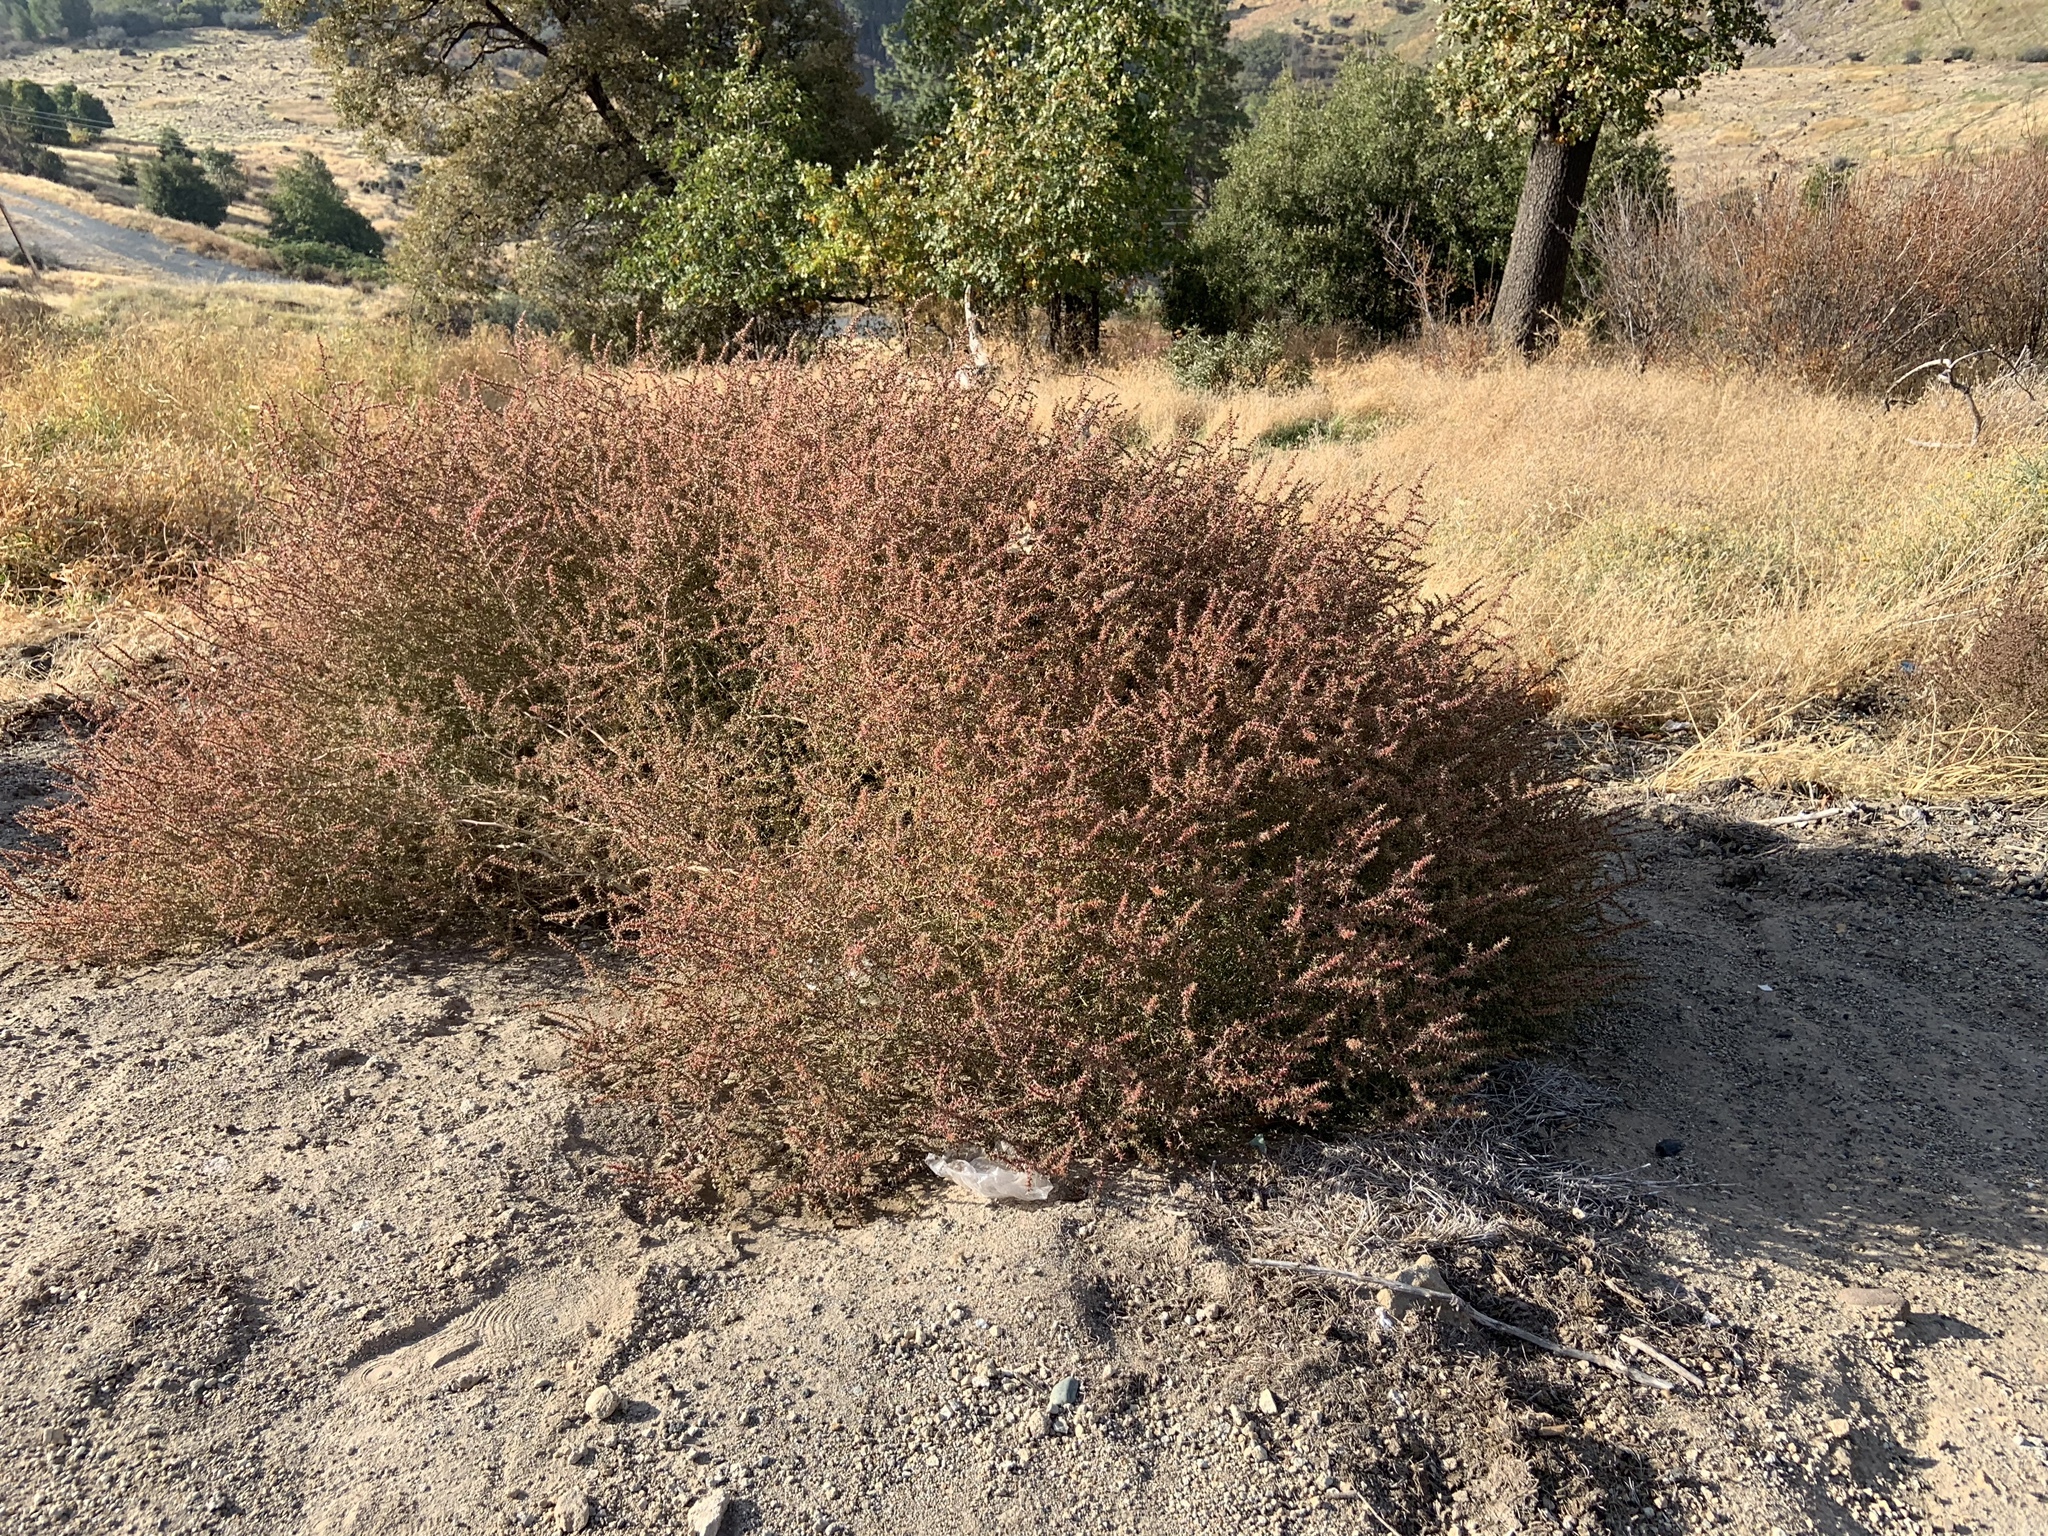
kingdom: Plantae
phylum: Tracheophyta
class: Magnoliopsida
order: Caryophyllales
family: Amaranthaceae
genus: Salsola
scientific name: Salsola tragus
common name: Prickly russian thistle
